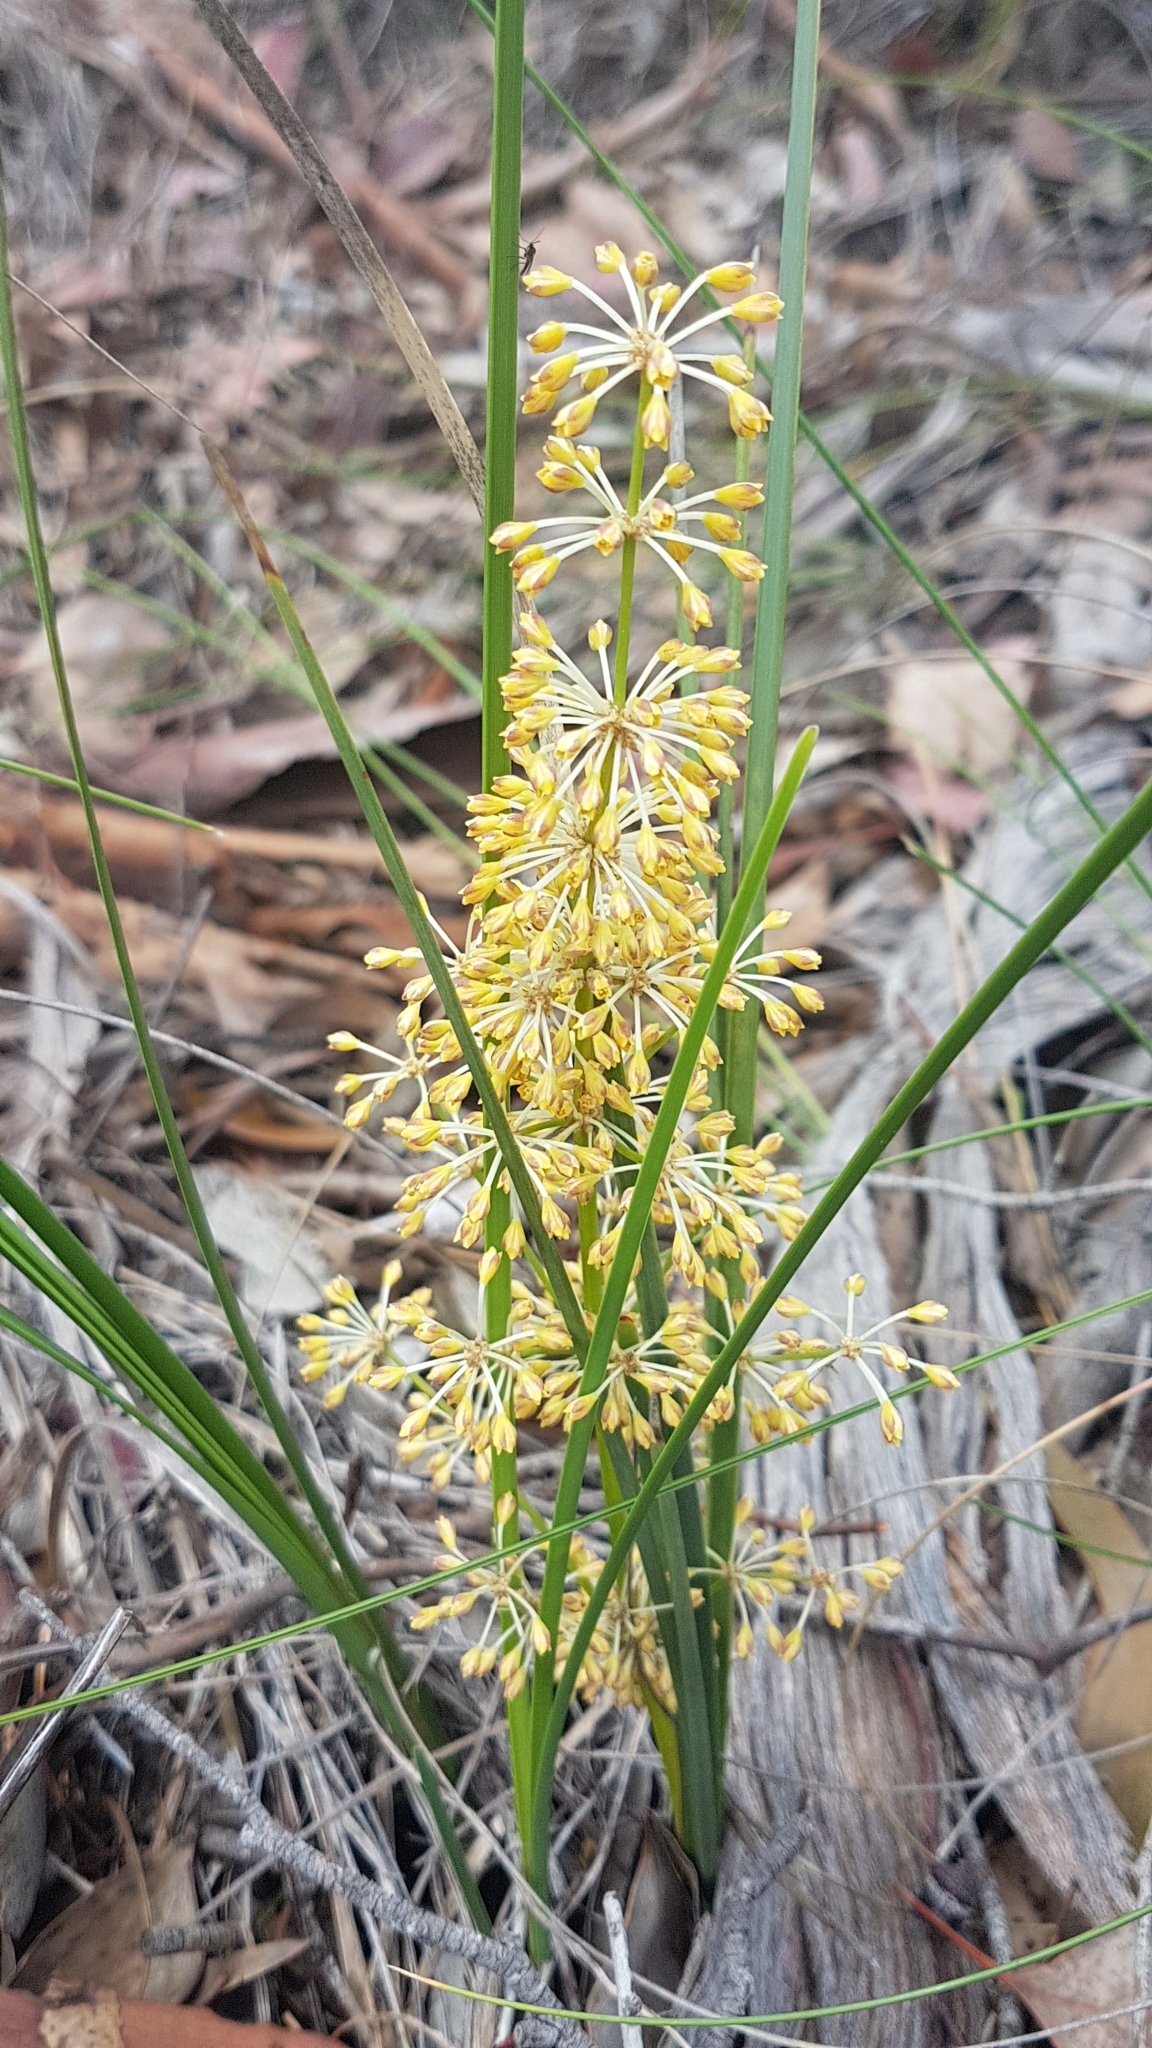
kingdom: Plantae
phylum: Tracheophyta
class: Liliopsida
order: Asparagales
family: Asparagaceae
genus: Lomandra
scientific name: Lomandra multiflora
